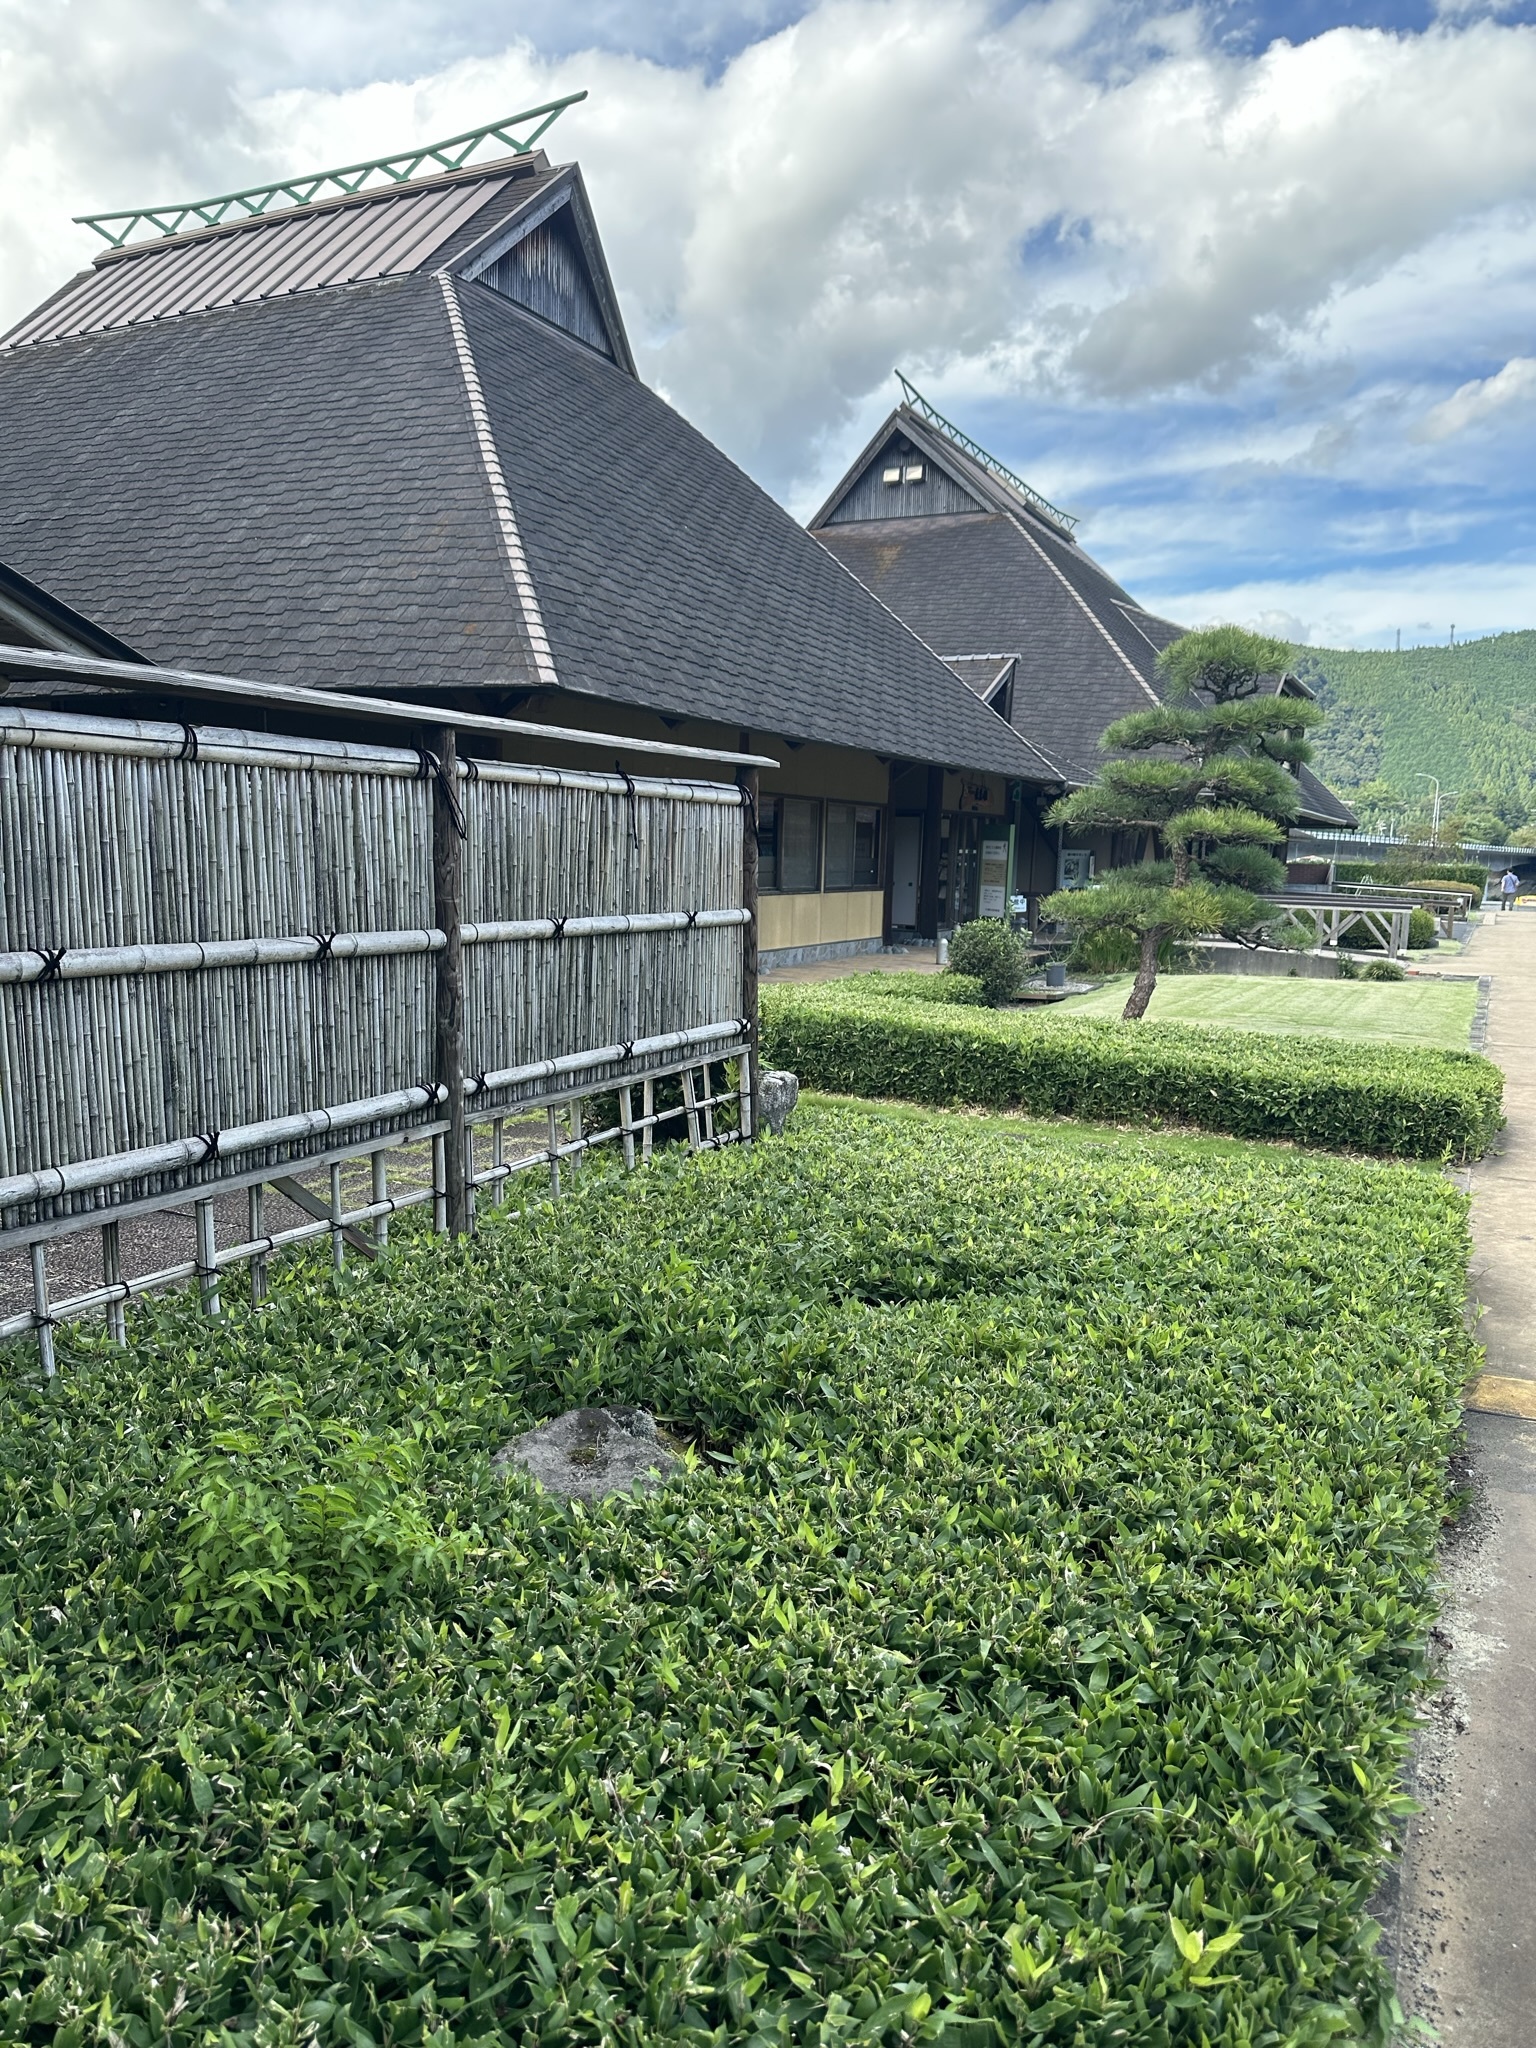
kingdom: Animalia
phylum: Arthropoda
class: Insecta
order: Orthoptera
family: Phalangopsidae
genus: Meloimorpha
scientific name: Meloimorpha japonica
